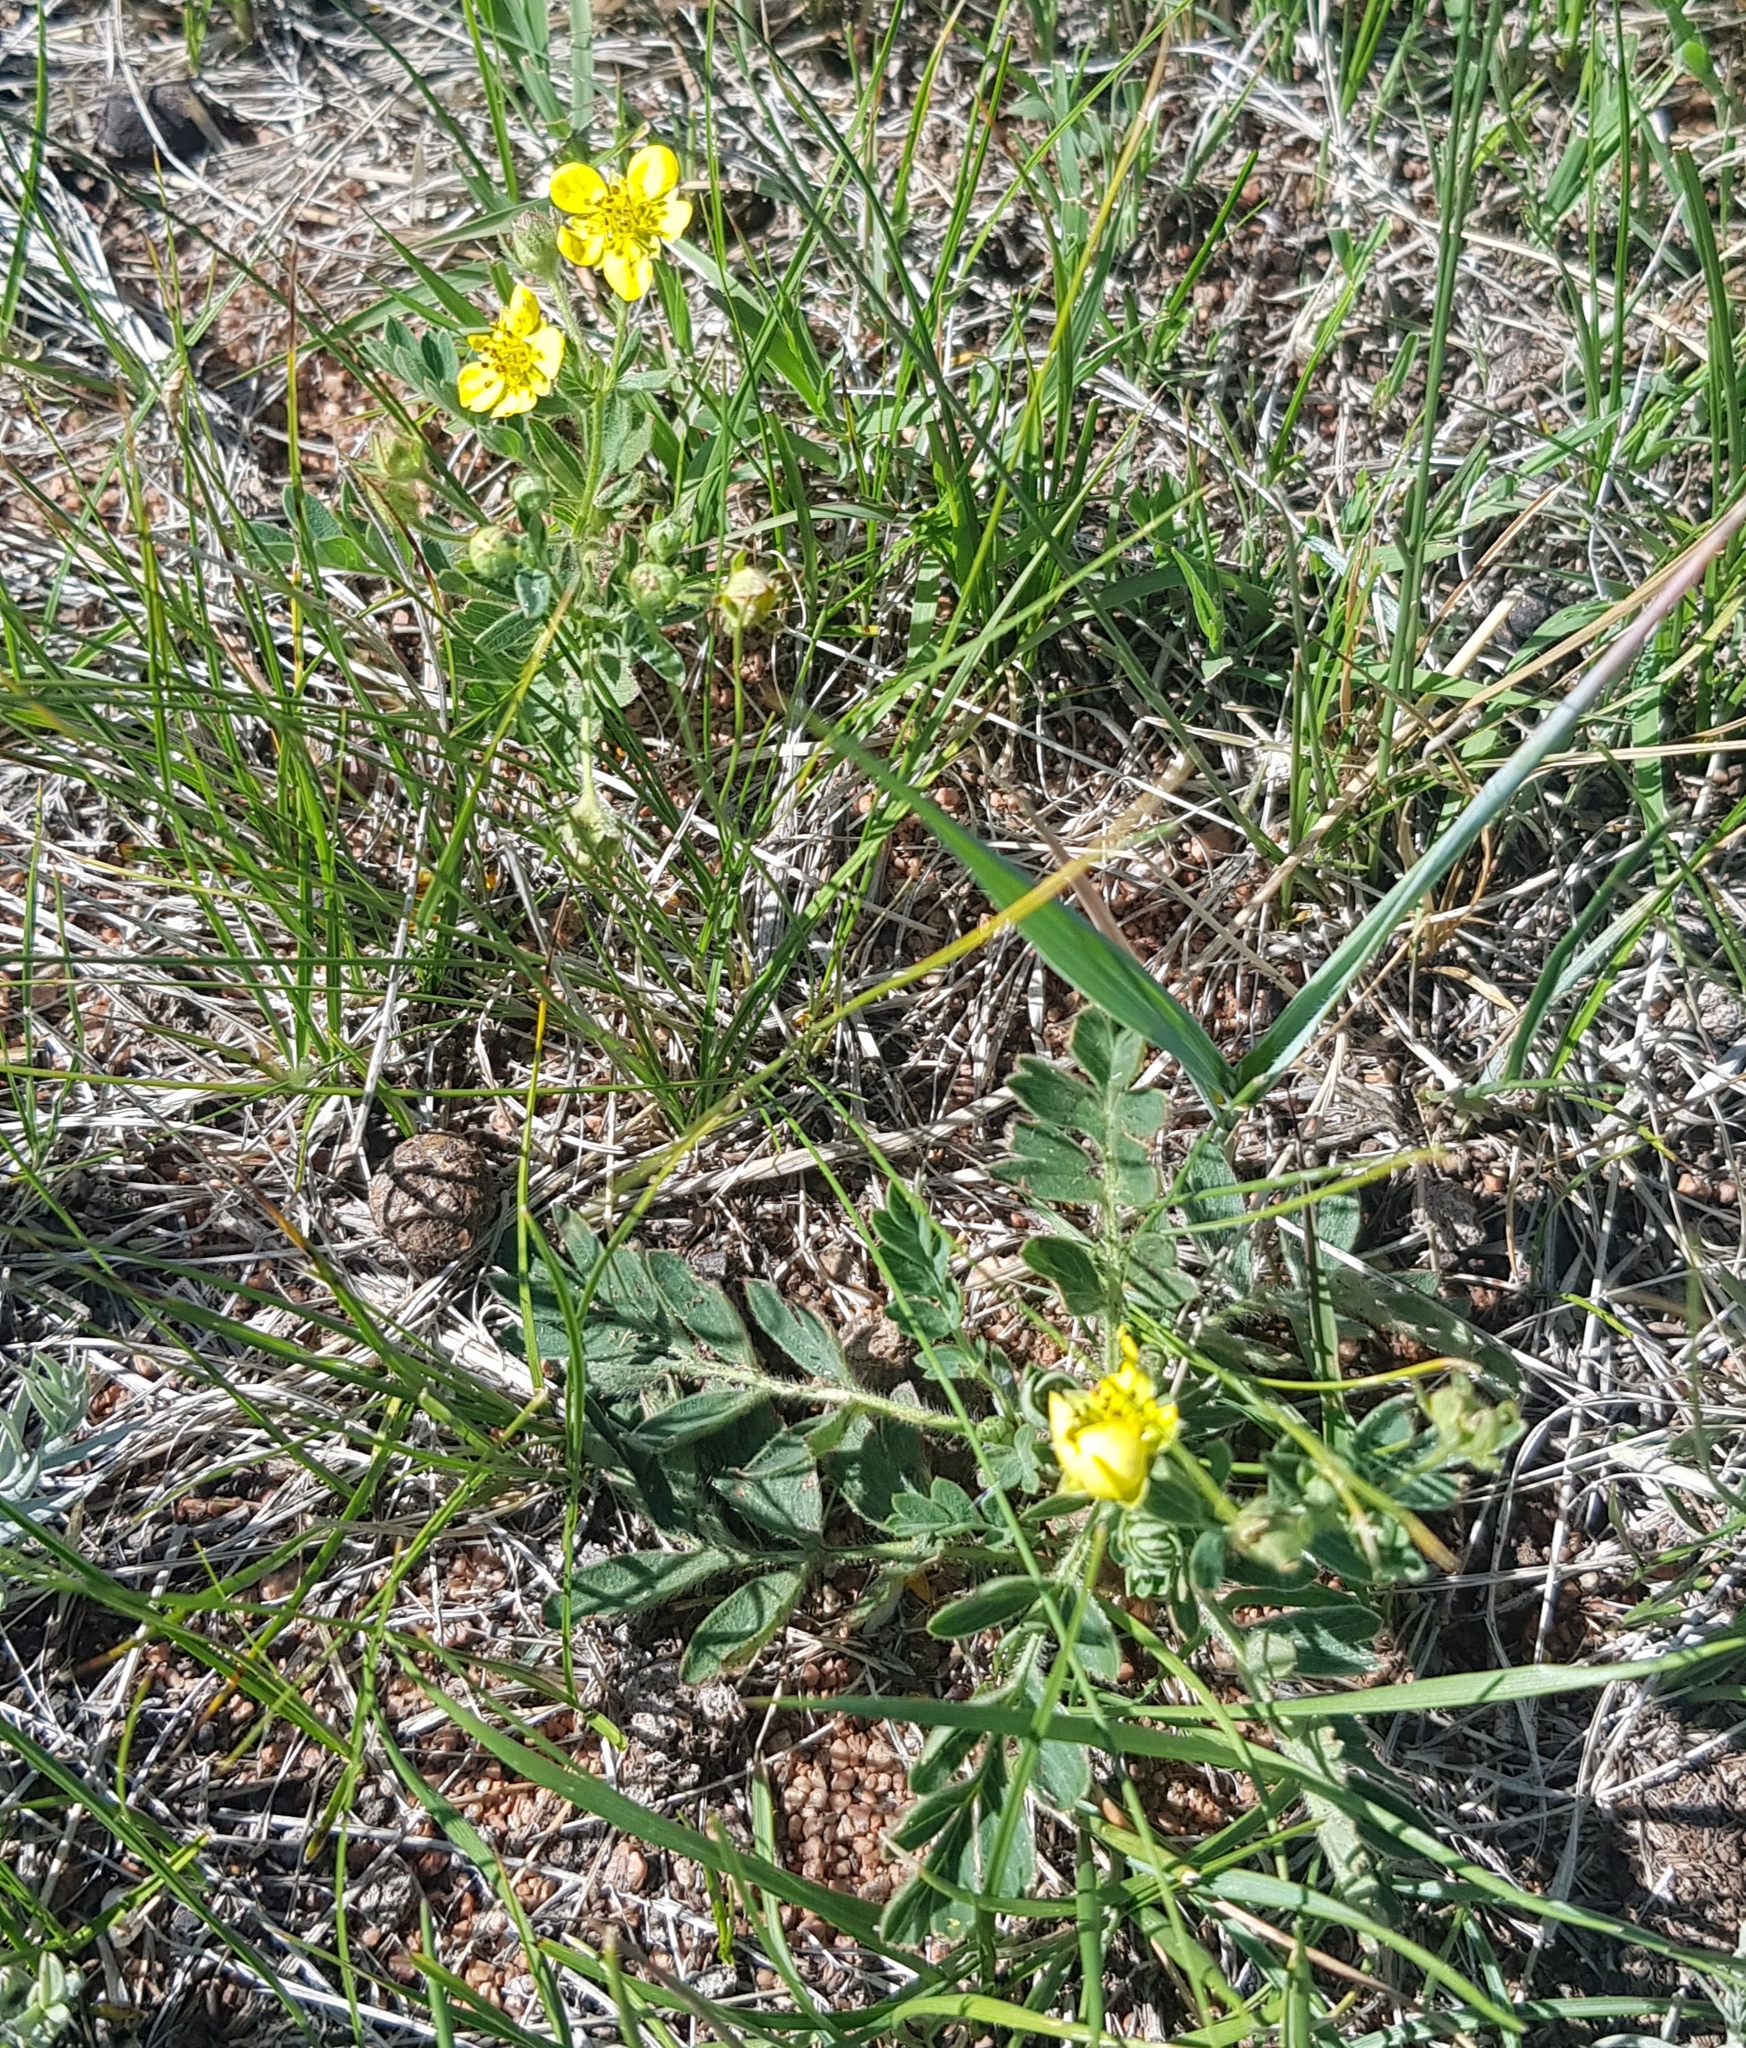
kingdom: Plantae
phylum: Tracheophyta
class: Magnoliopsida
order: Rosales
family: Rosaceae
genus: Sibbaldianthe
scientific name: Sibbaldianthe bifurca
